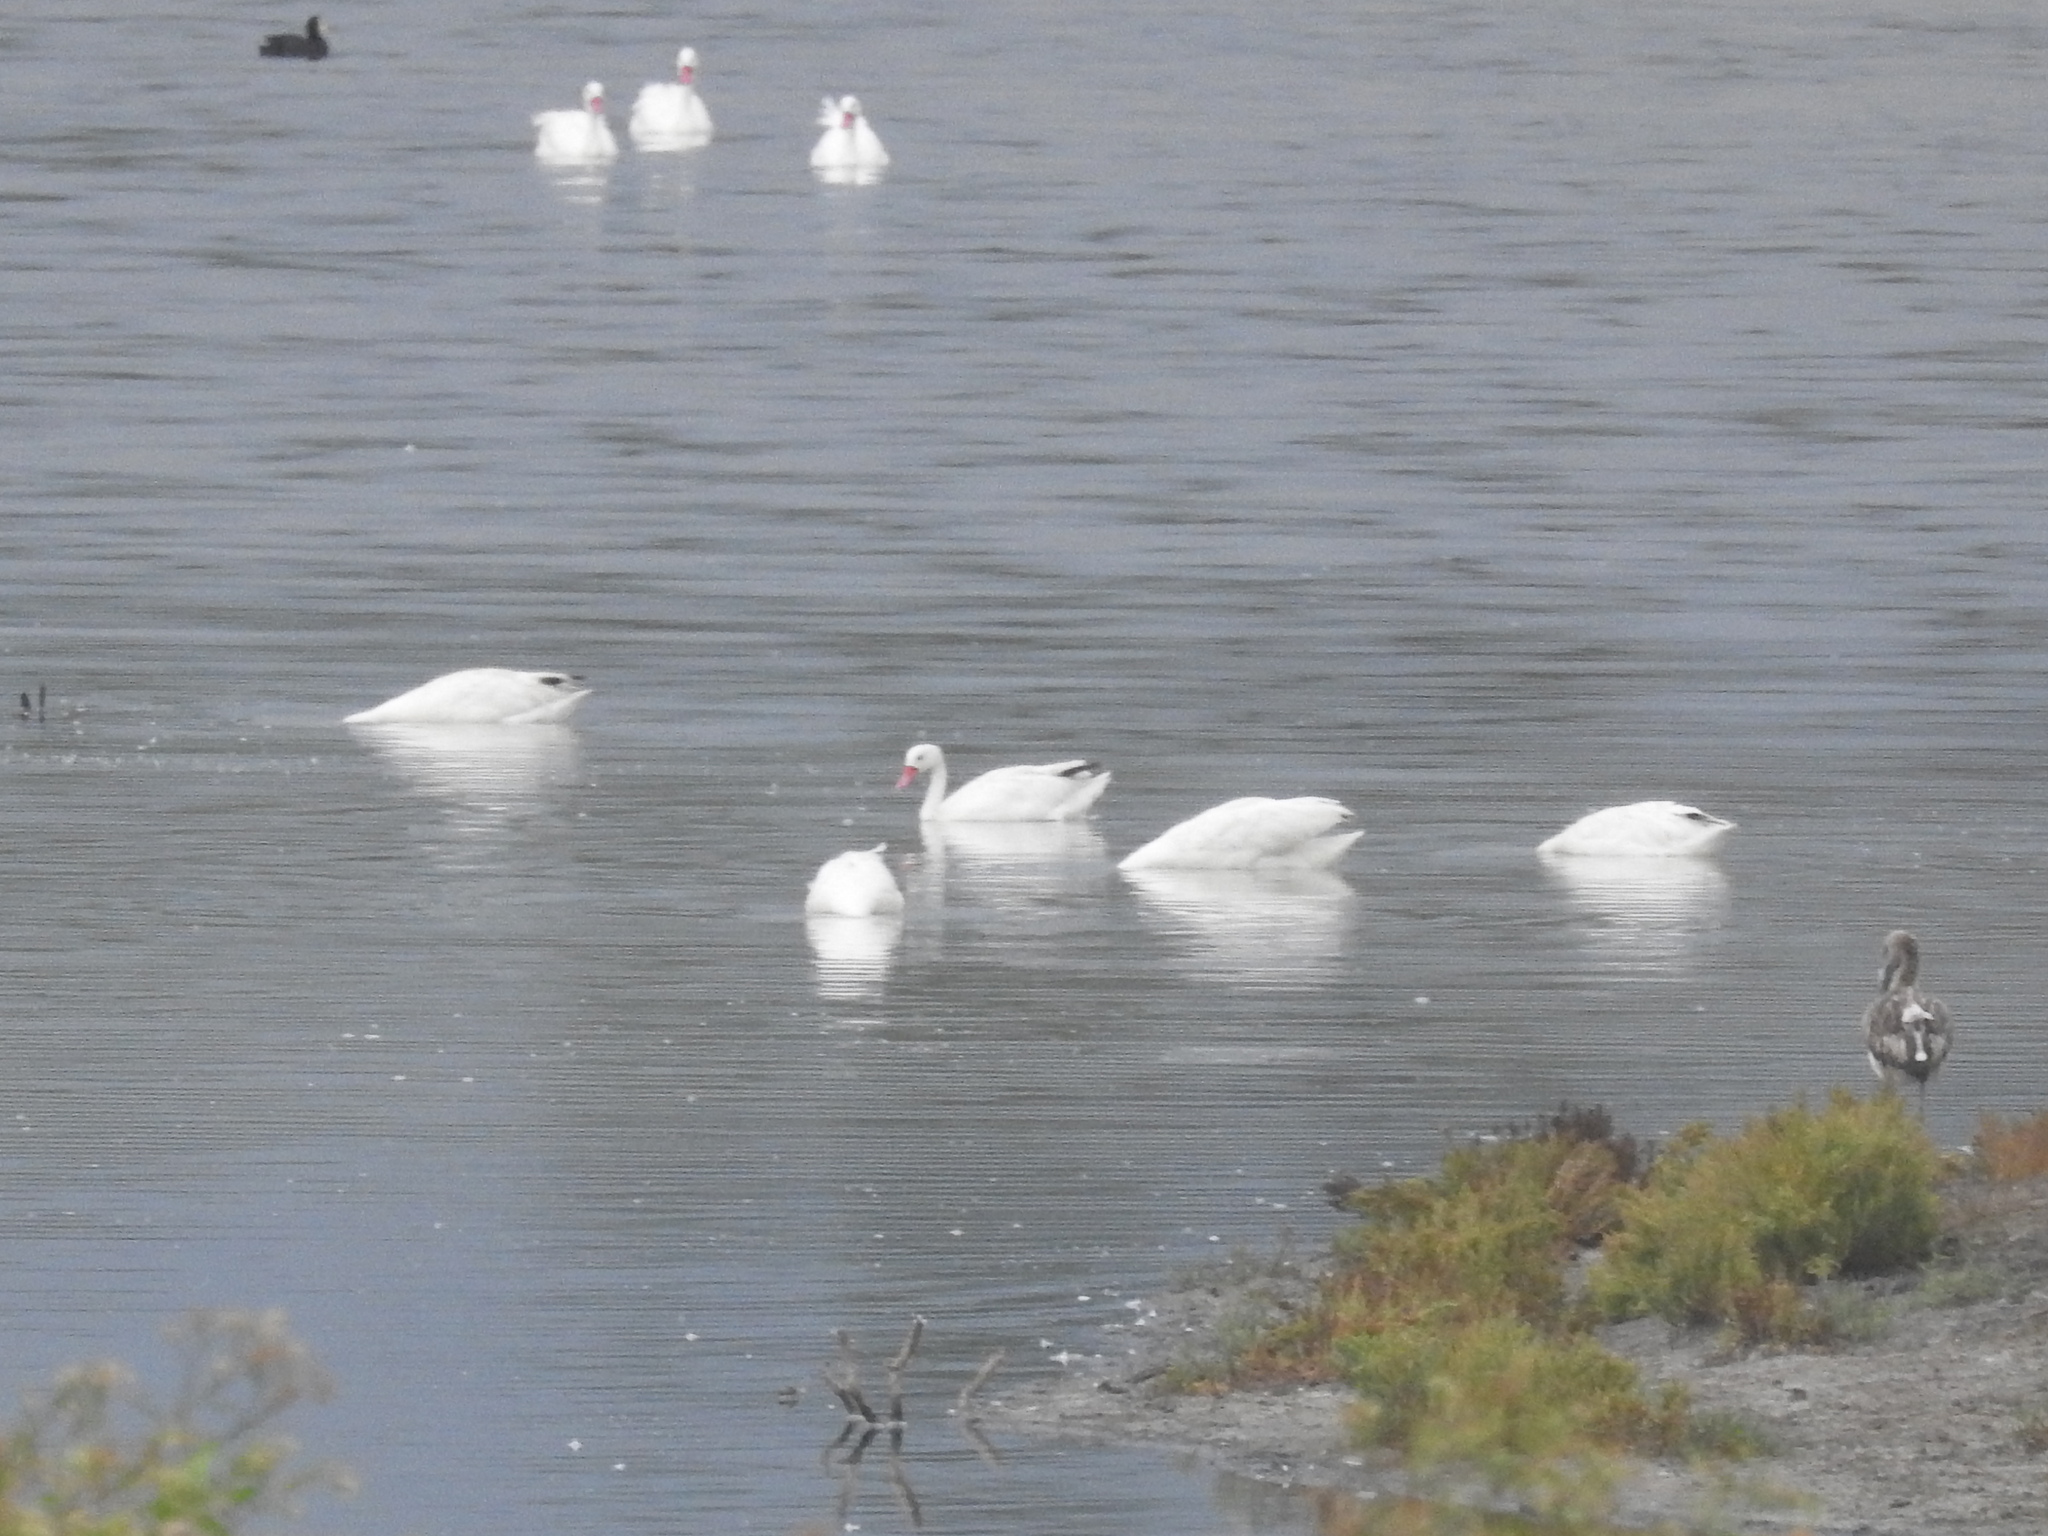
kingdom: Animalia
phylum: Chordata
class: Aves
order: Anseriformes
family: Anatidae
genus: Coscoroba
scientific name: Coscoroba coscoroba
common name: Coscoroba swan
